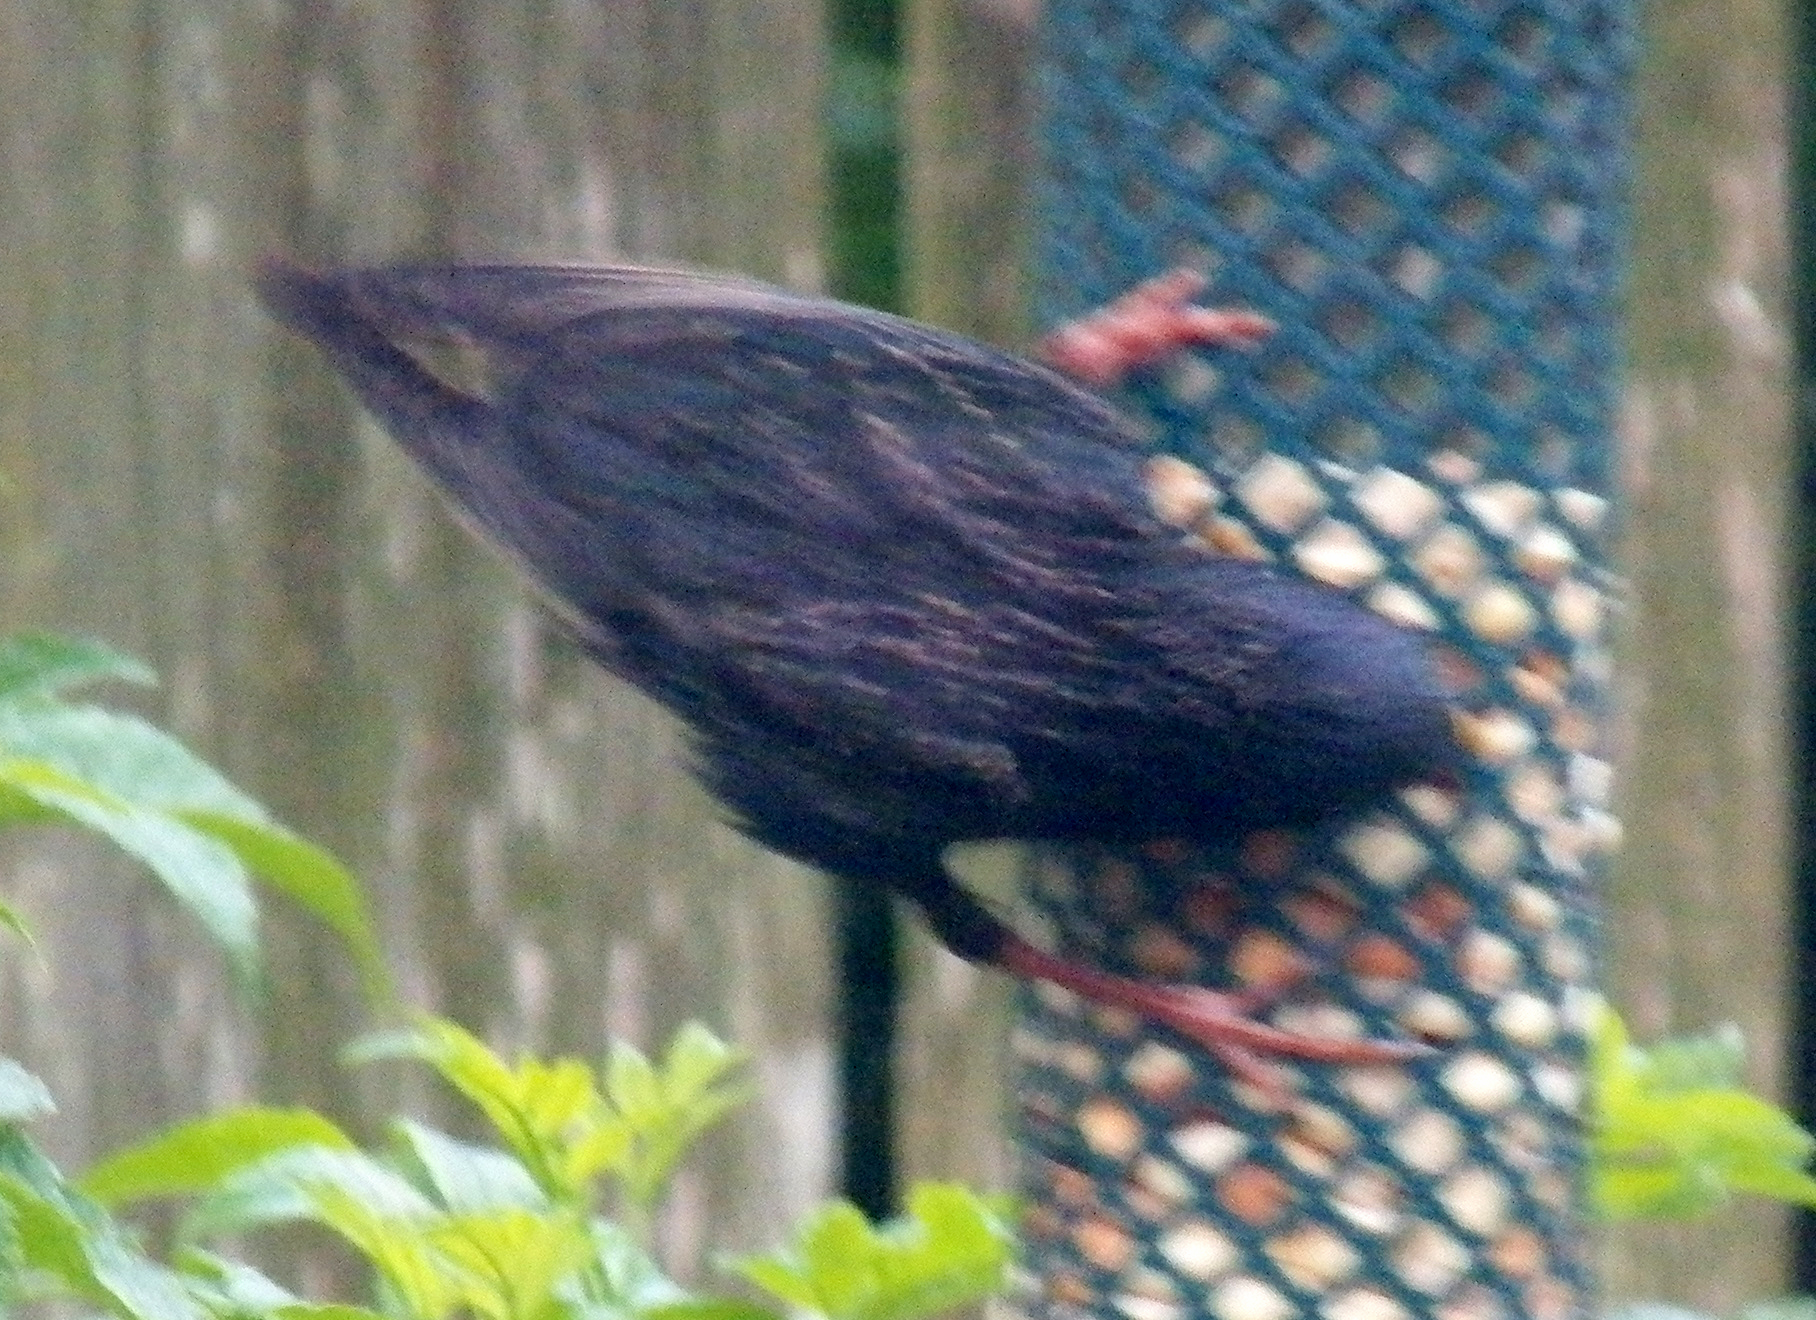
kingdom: Animalia
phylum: Chordata
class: Aves
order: Passeriformes
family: Sturnidae
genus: Sturnus
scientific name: Sturnus vulgaris
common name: Common starling
